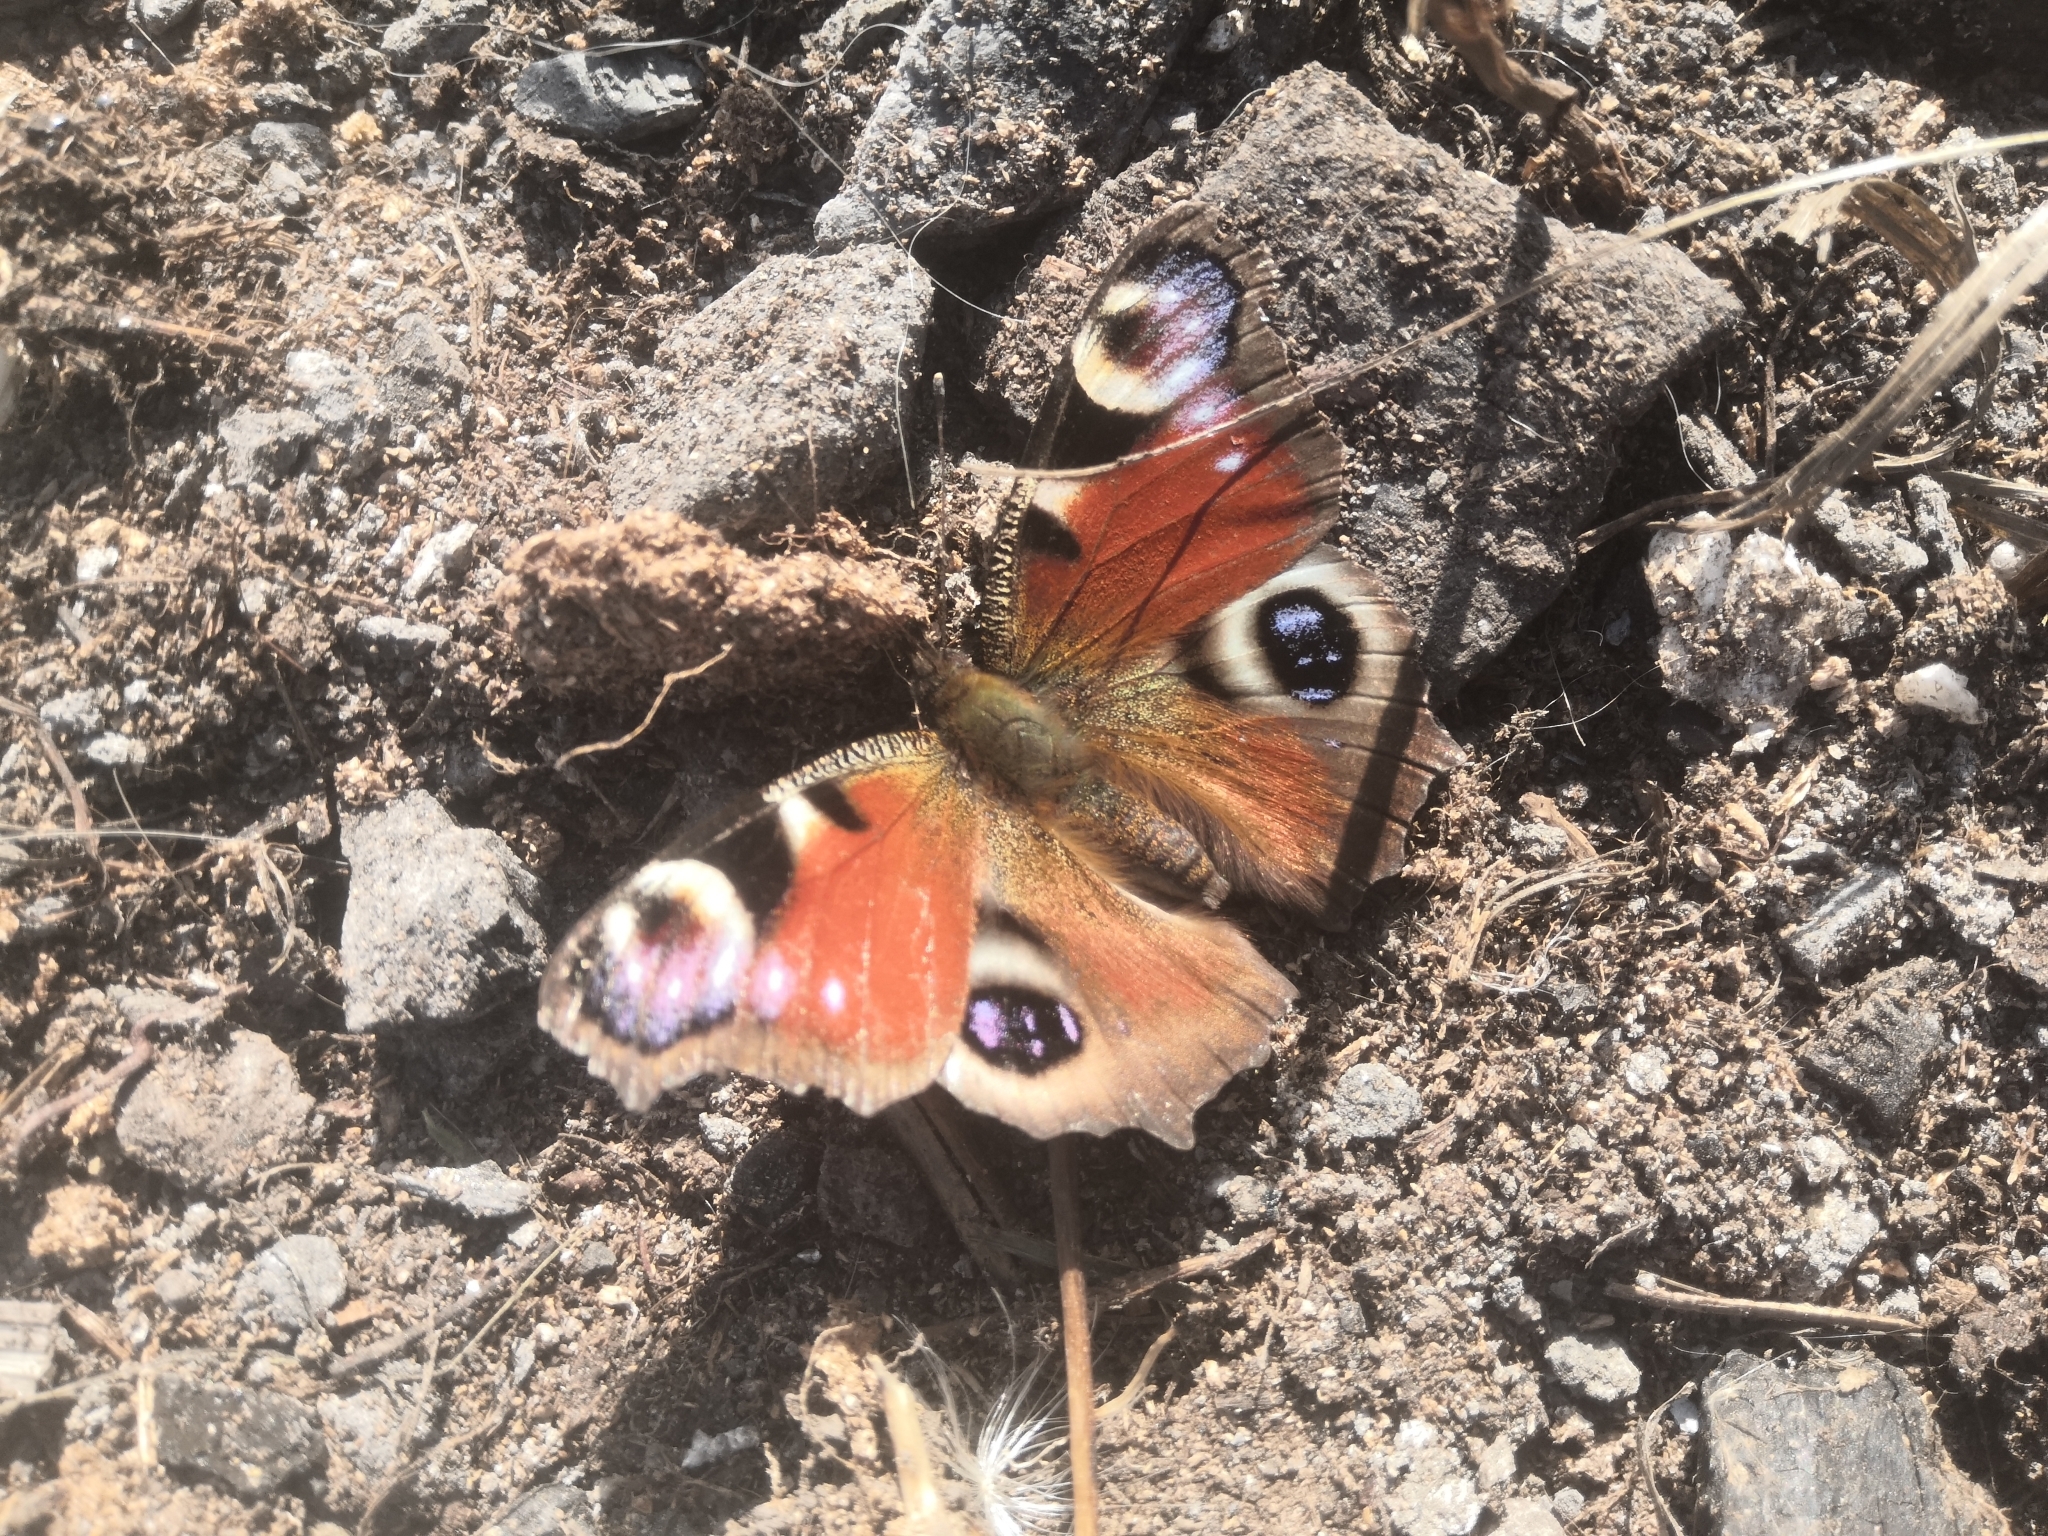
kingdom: Animalia
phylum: Arthropoda
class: Insecta
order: Lepidoptera
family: Nymphalidae
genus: Aglais
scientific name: Aglais io
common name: Peacock
